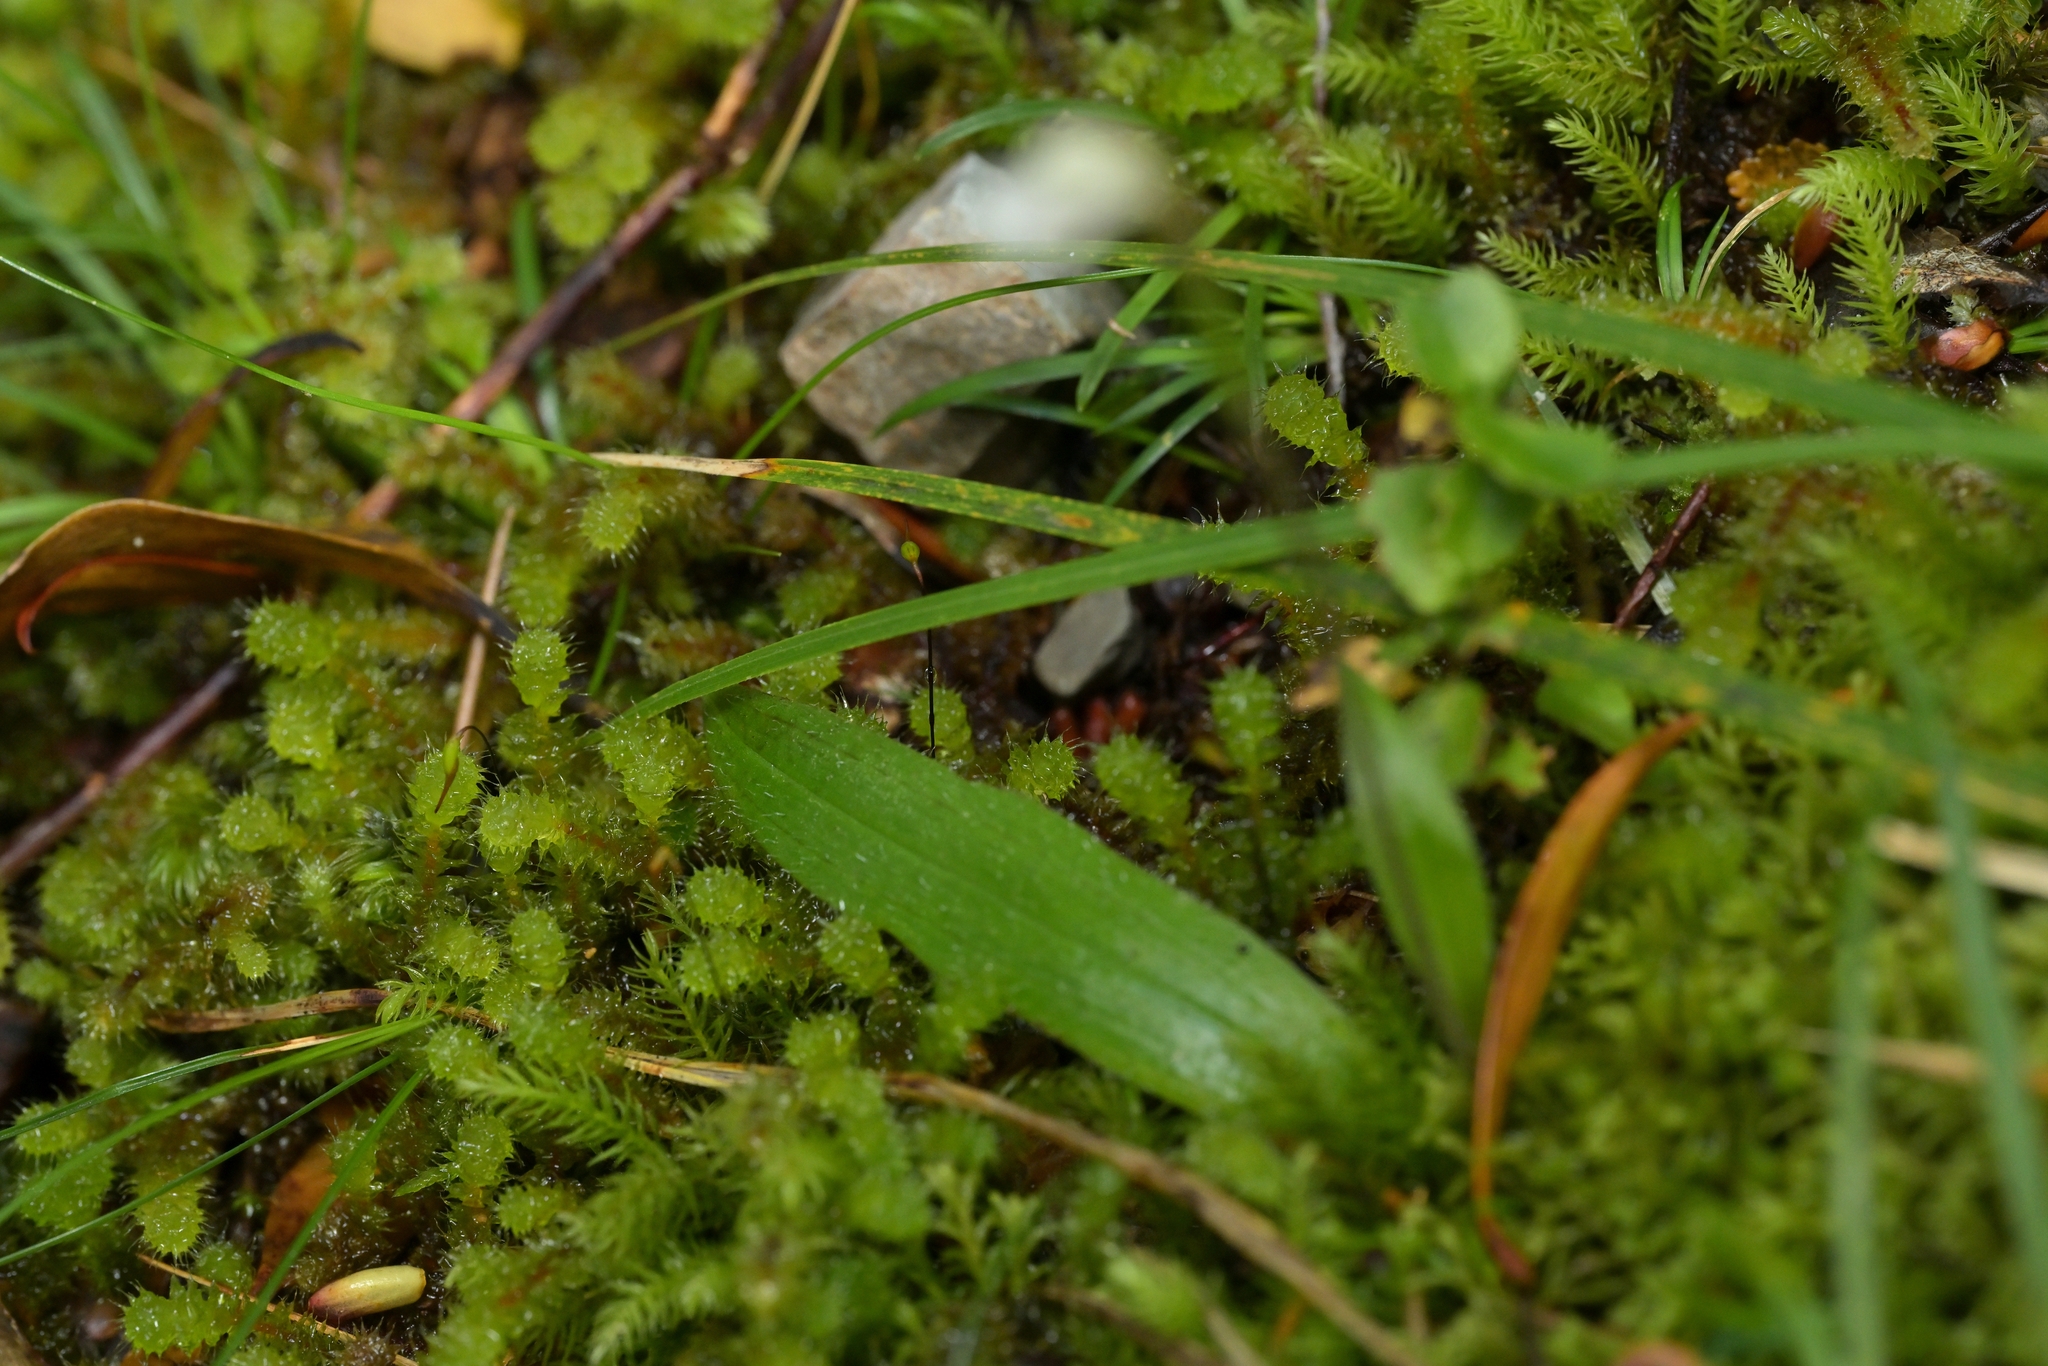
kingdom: Plantae
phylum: Tracheophyta
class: Liliopsida
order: Asparagales
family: Orchidaceae
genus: Aporostylis
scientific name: Aporostylis bifolia
